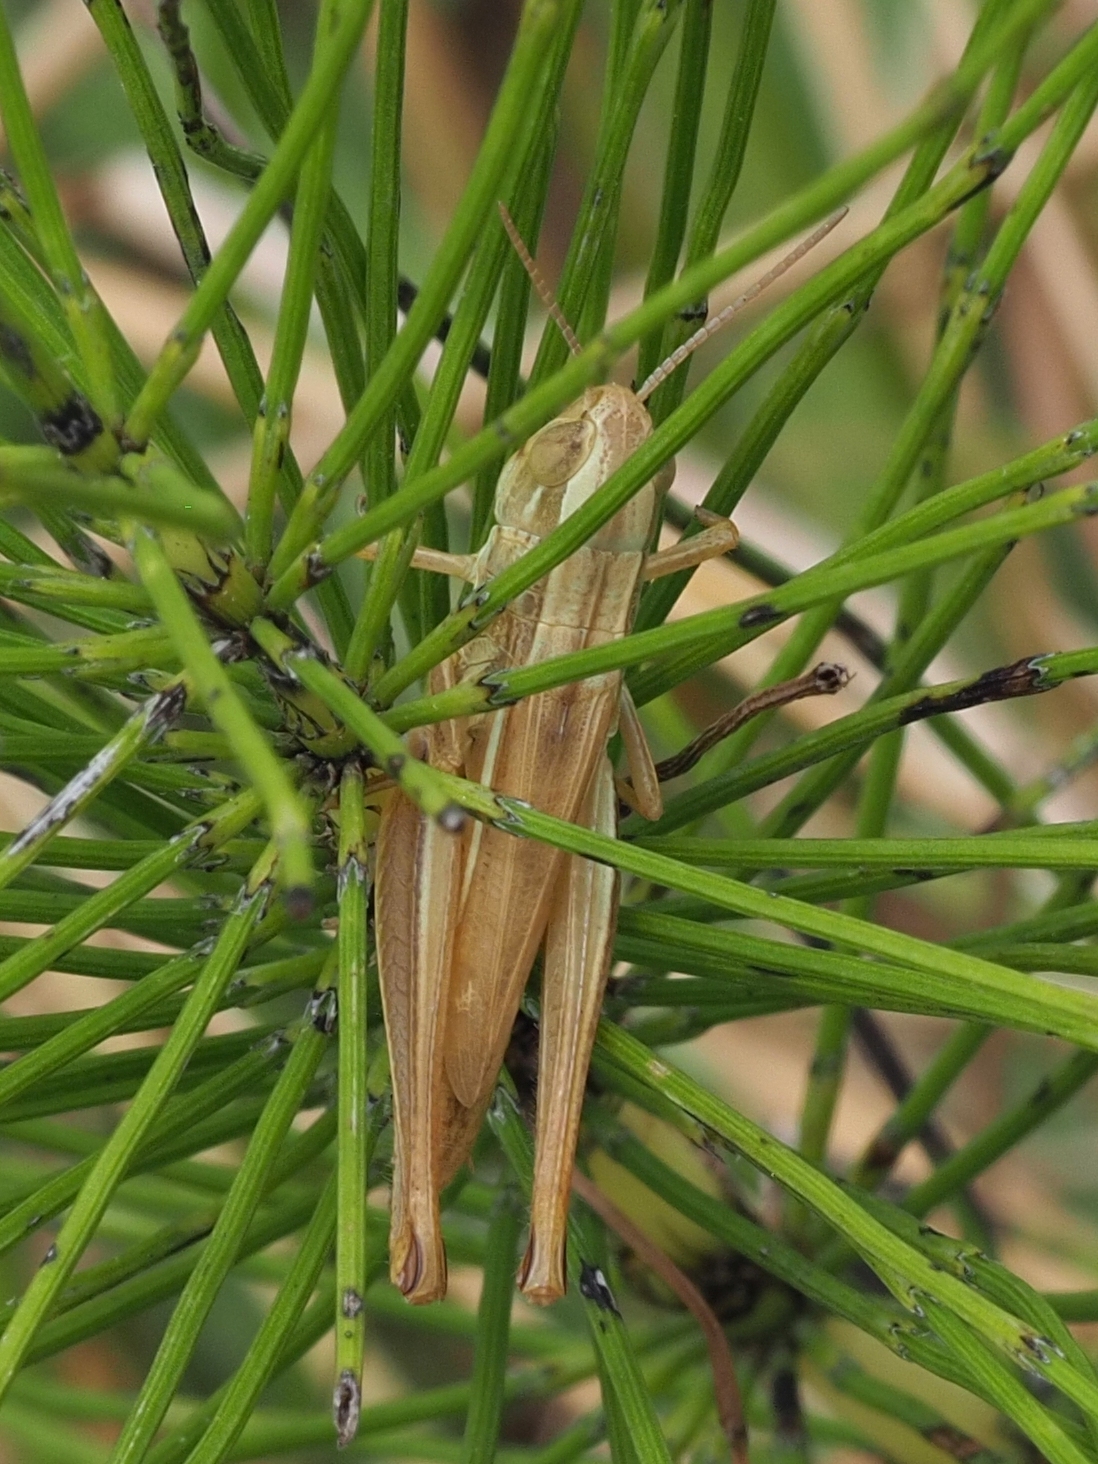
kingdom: Animalia
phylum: Arthropoda
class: Insecta
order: Orthoptera
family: Acrididae
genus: Euchorthippus
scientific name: Euchorthippus declivus
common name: Common straw grasshopper
